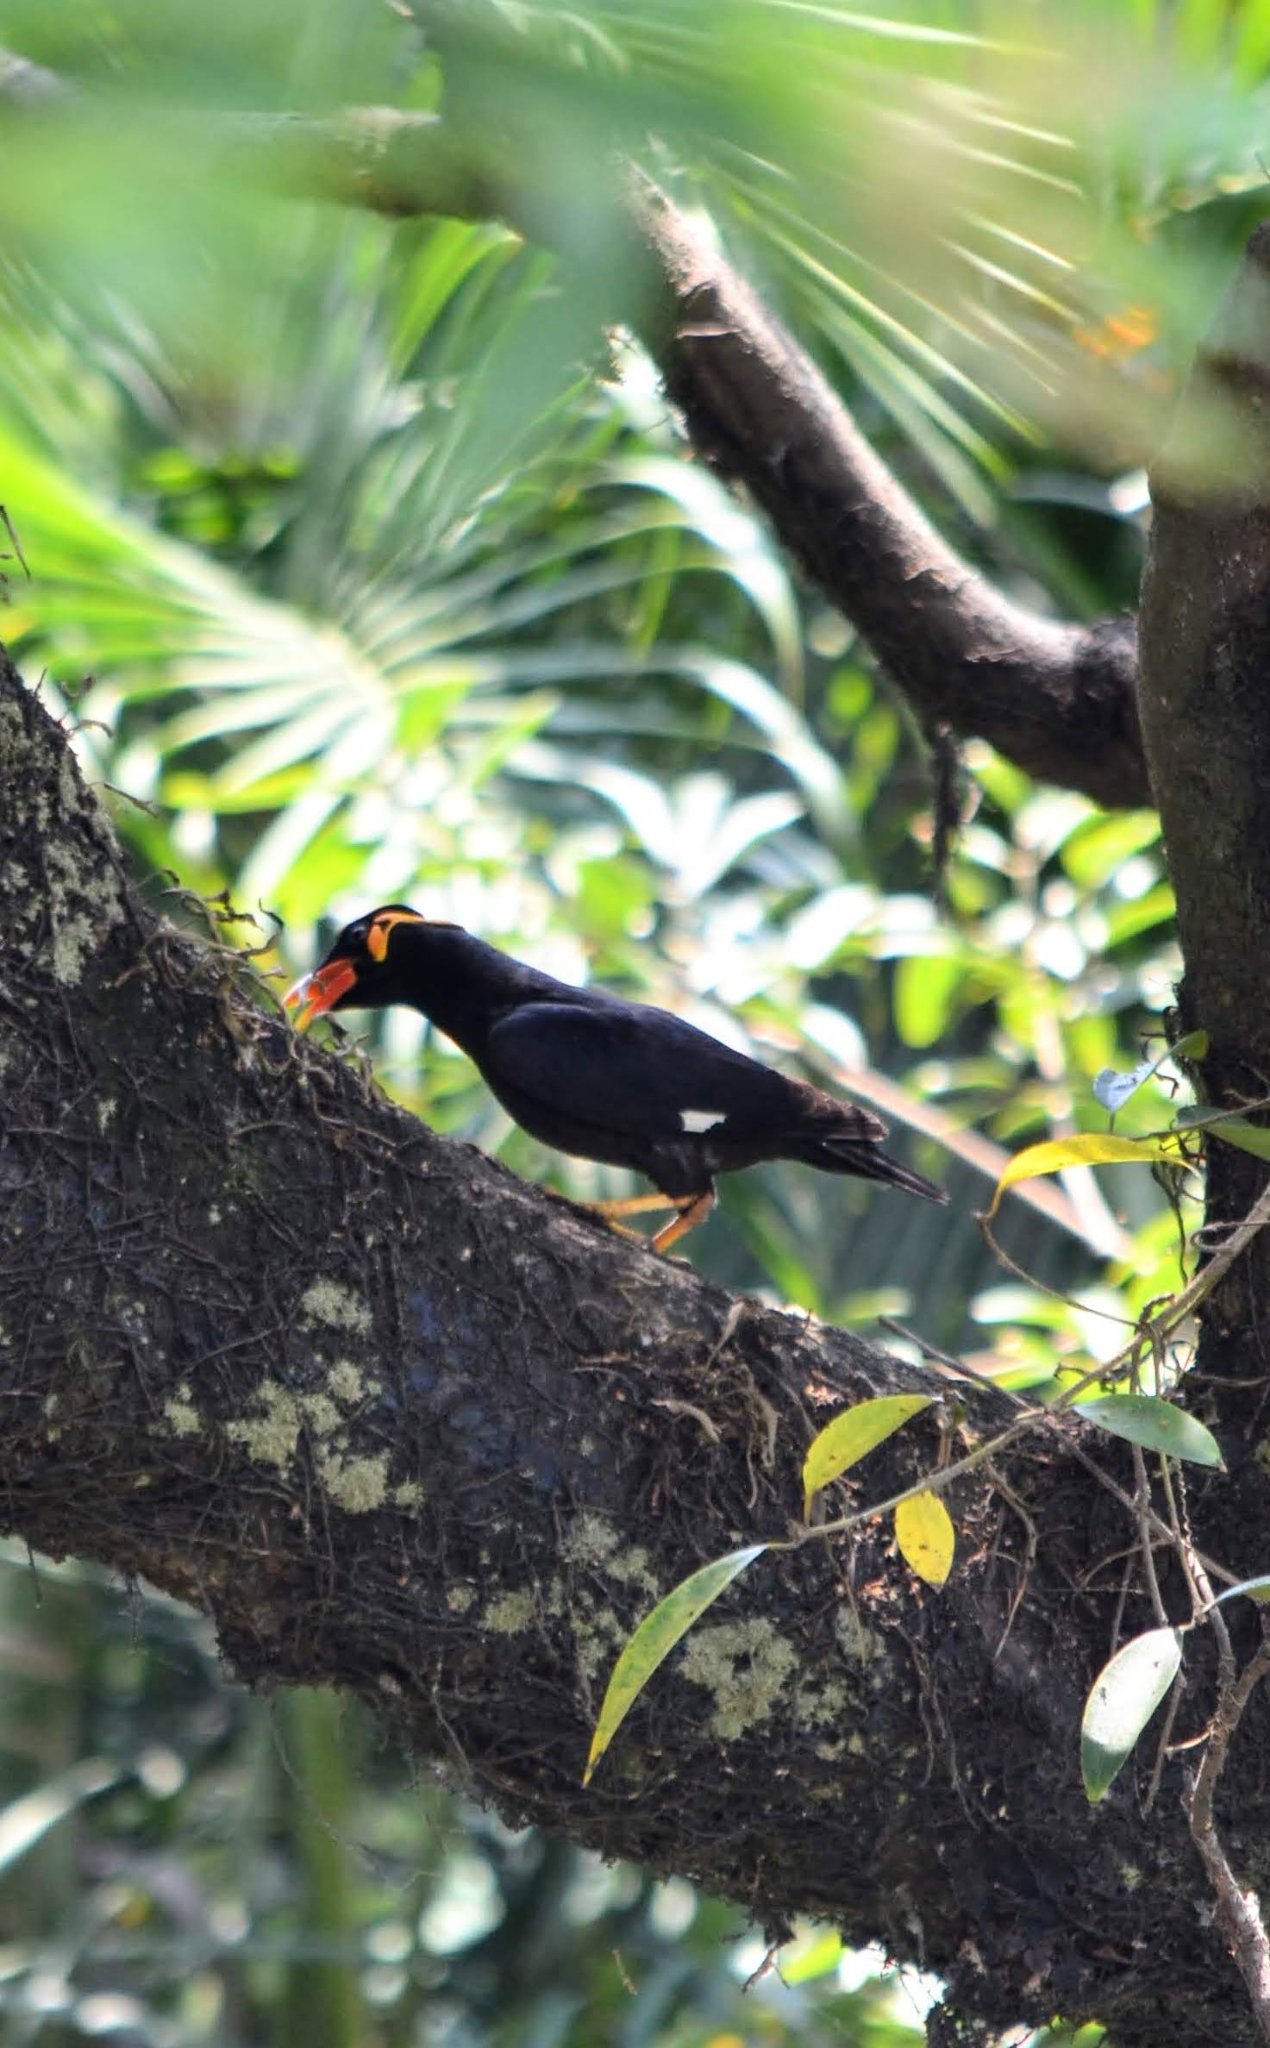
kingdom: Animalia
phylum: Chordata
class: Aves
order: Passeriformes
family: Sturnidae
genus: Gracula
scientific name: Gracula religiosa
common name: Common hill myna
